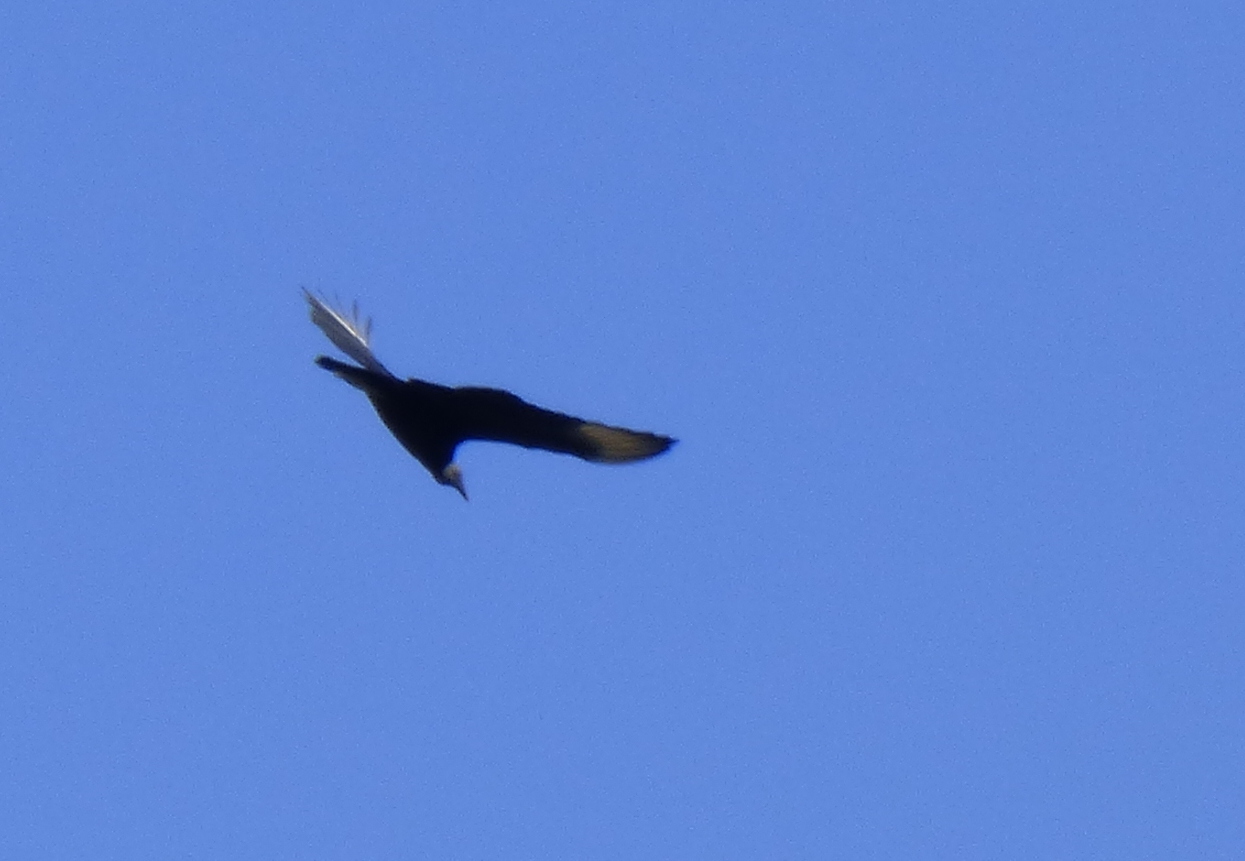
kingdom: Animalia
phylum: Chordata
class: Aves
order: Accipitriformes
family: Cathartidae
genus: Coragyps
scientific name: Coragyps atratus
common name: Black vulture
